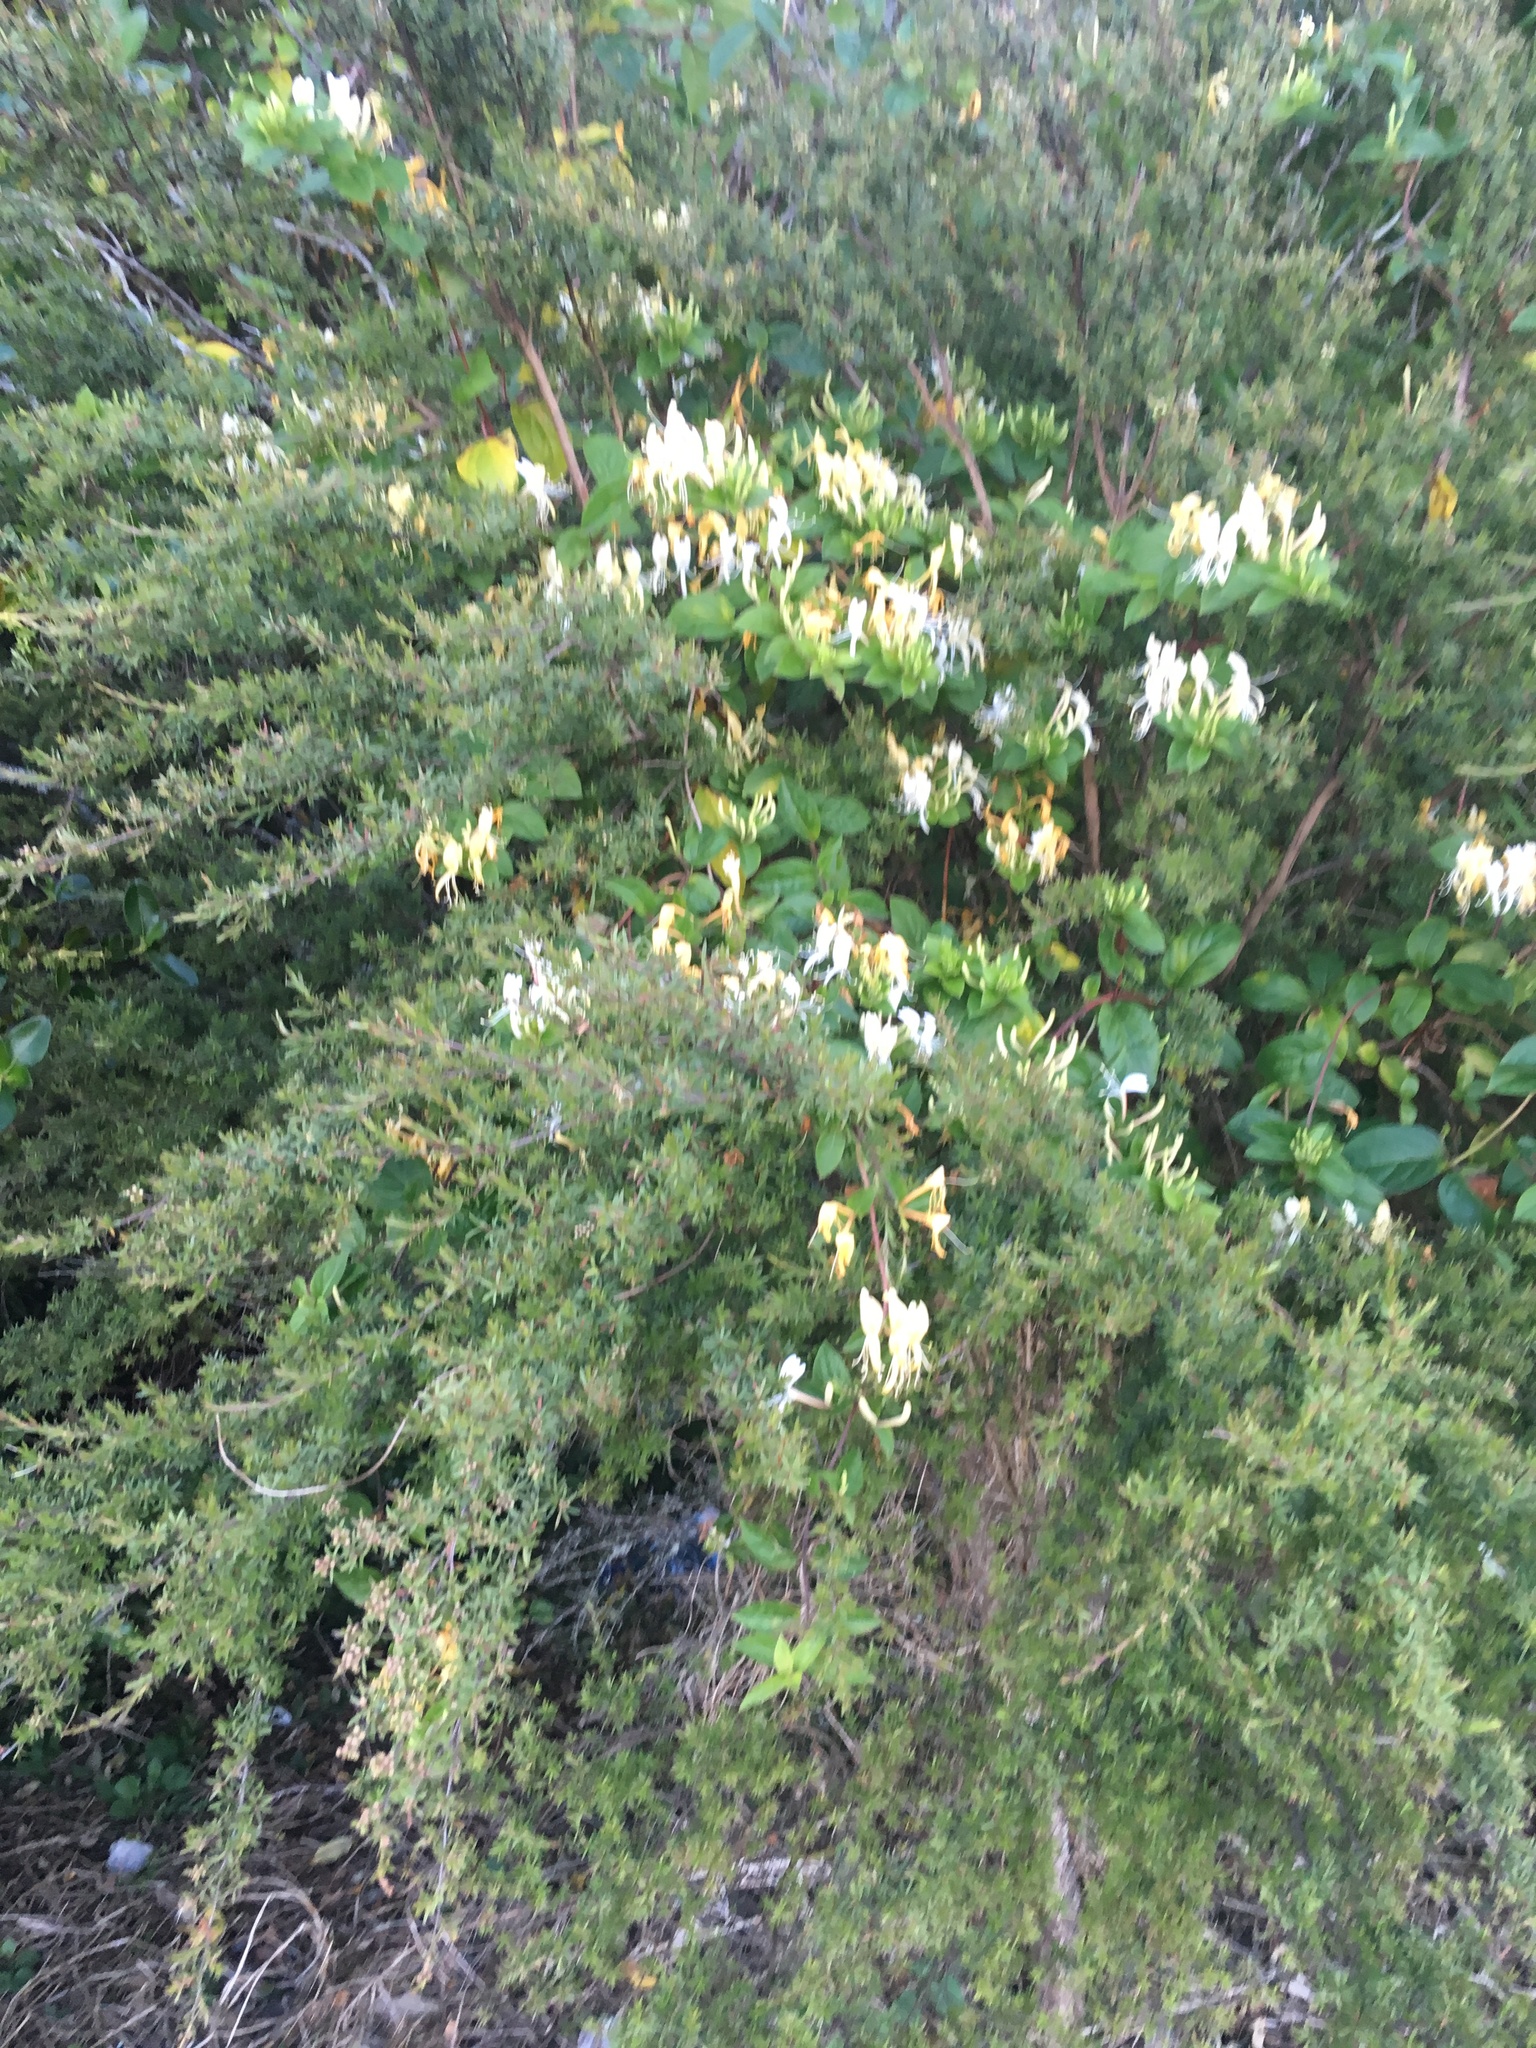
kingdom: Plantae
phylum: Tracheophyta
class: Magnoliopsida
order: Dipsacales
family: Caprifoliaceae
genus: Lonicera
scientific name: Lonicera japonica
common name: Japanese honeysuckle
